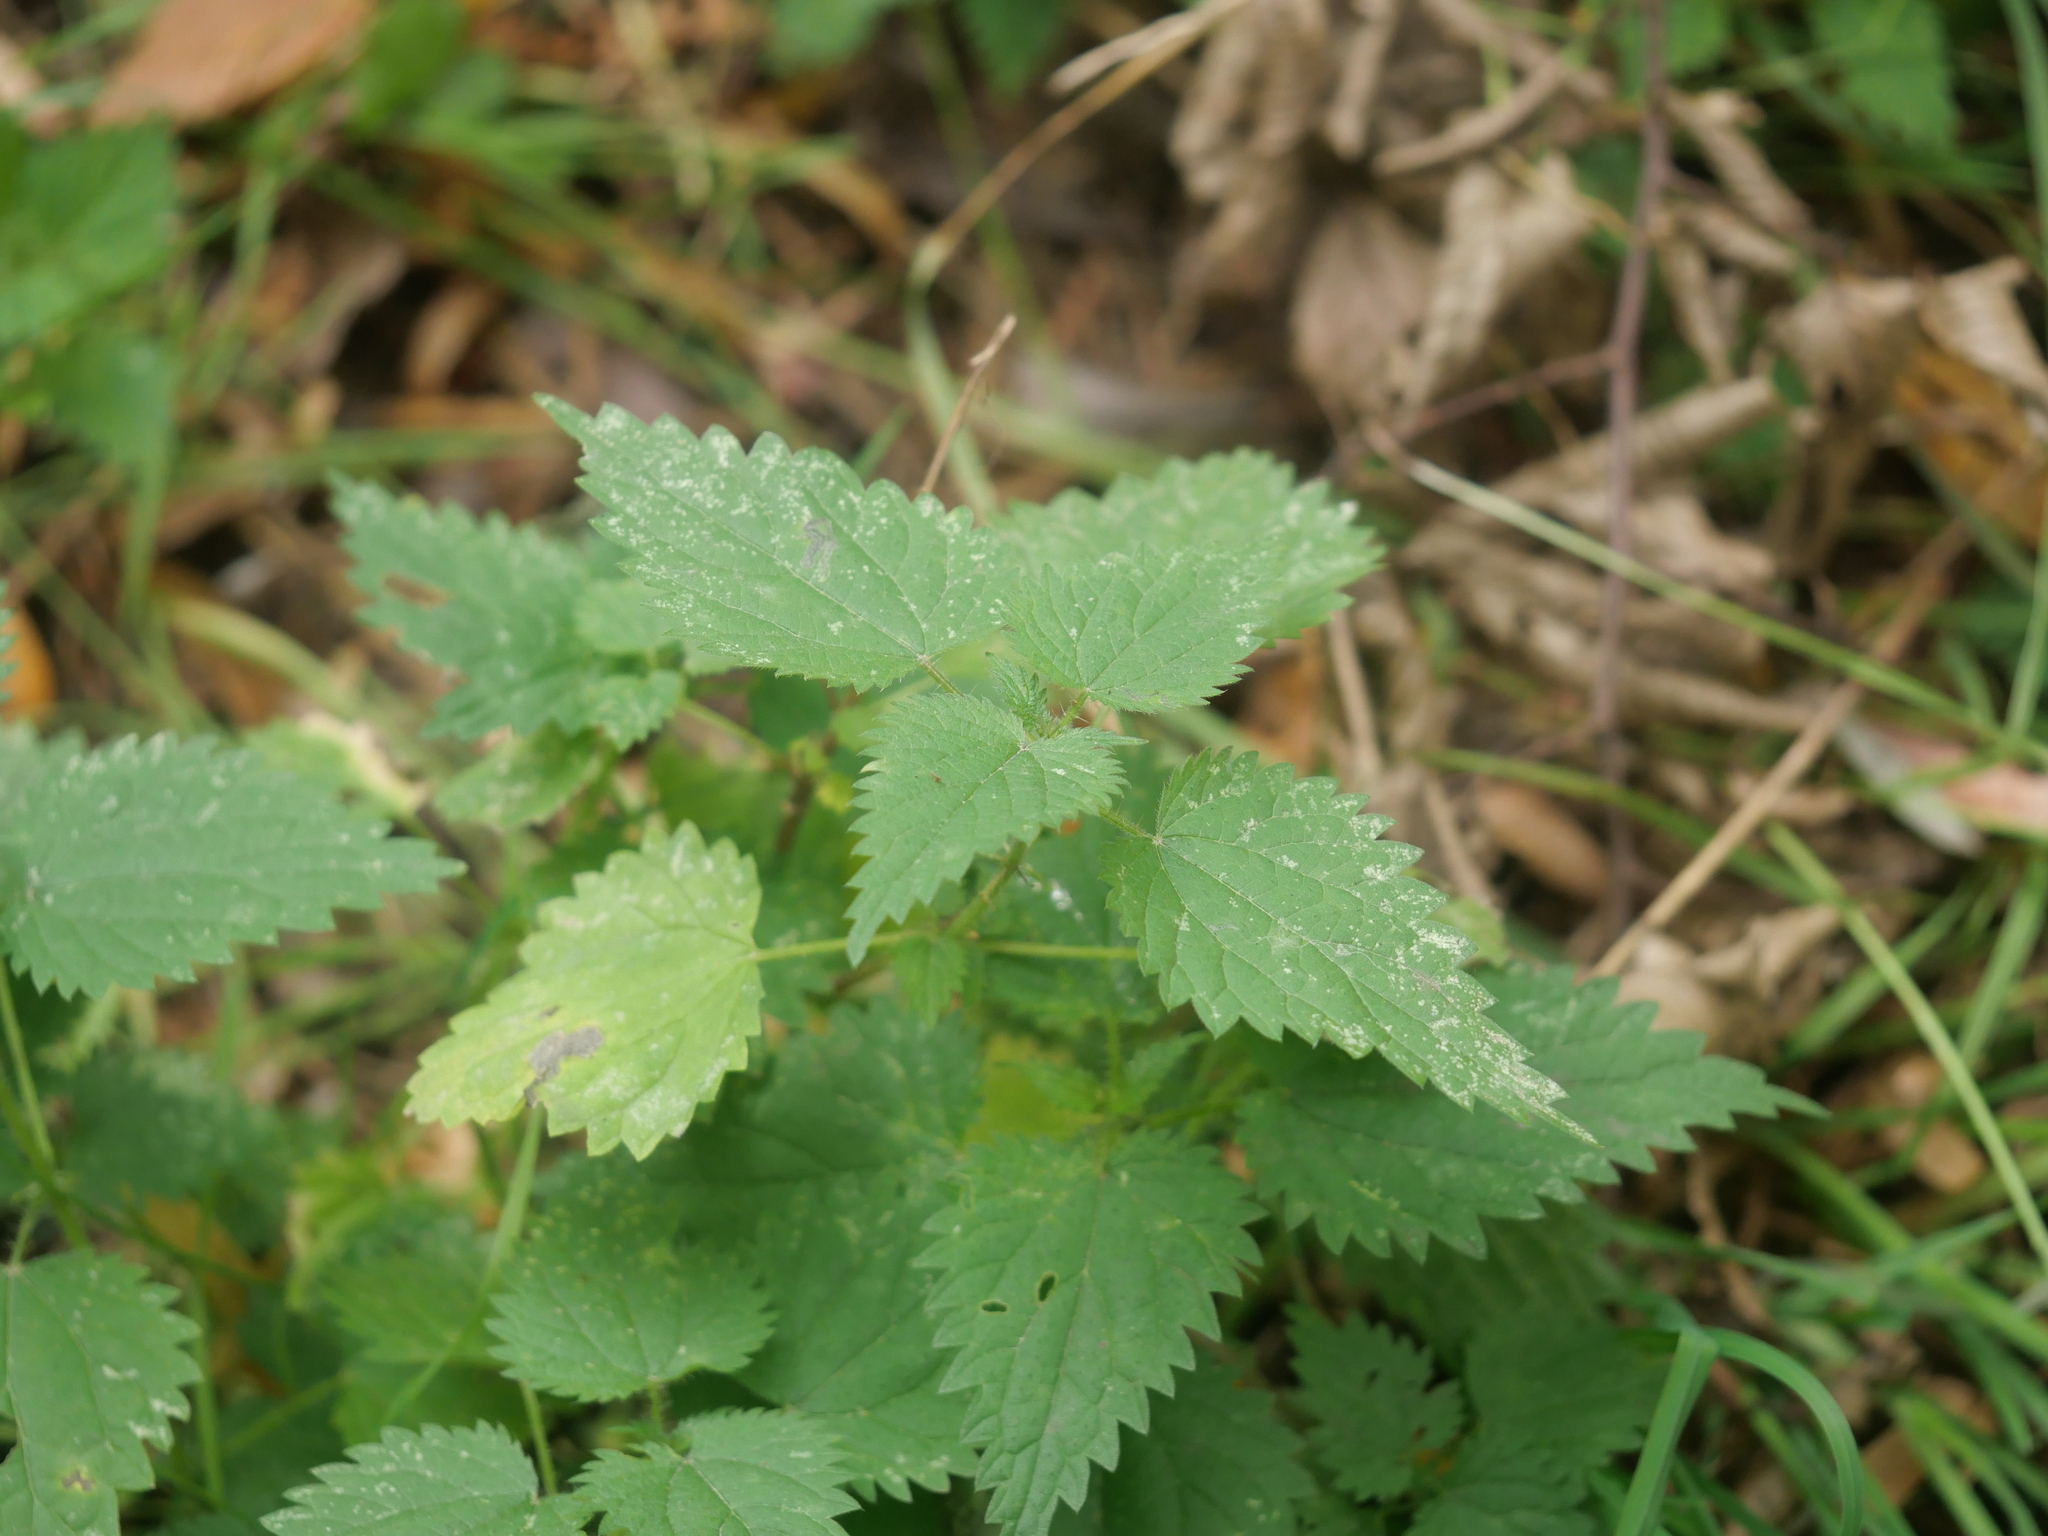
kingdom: Plantae
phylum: Tracheophyta
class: Magnoliopsida
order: Rosales
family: Urticaceae
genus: Urtica
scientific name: Urtica dioica
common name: Common nettle
